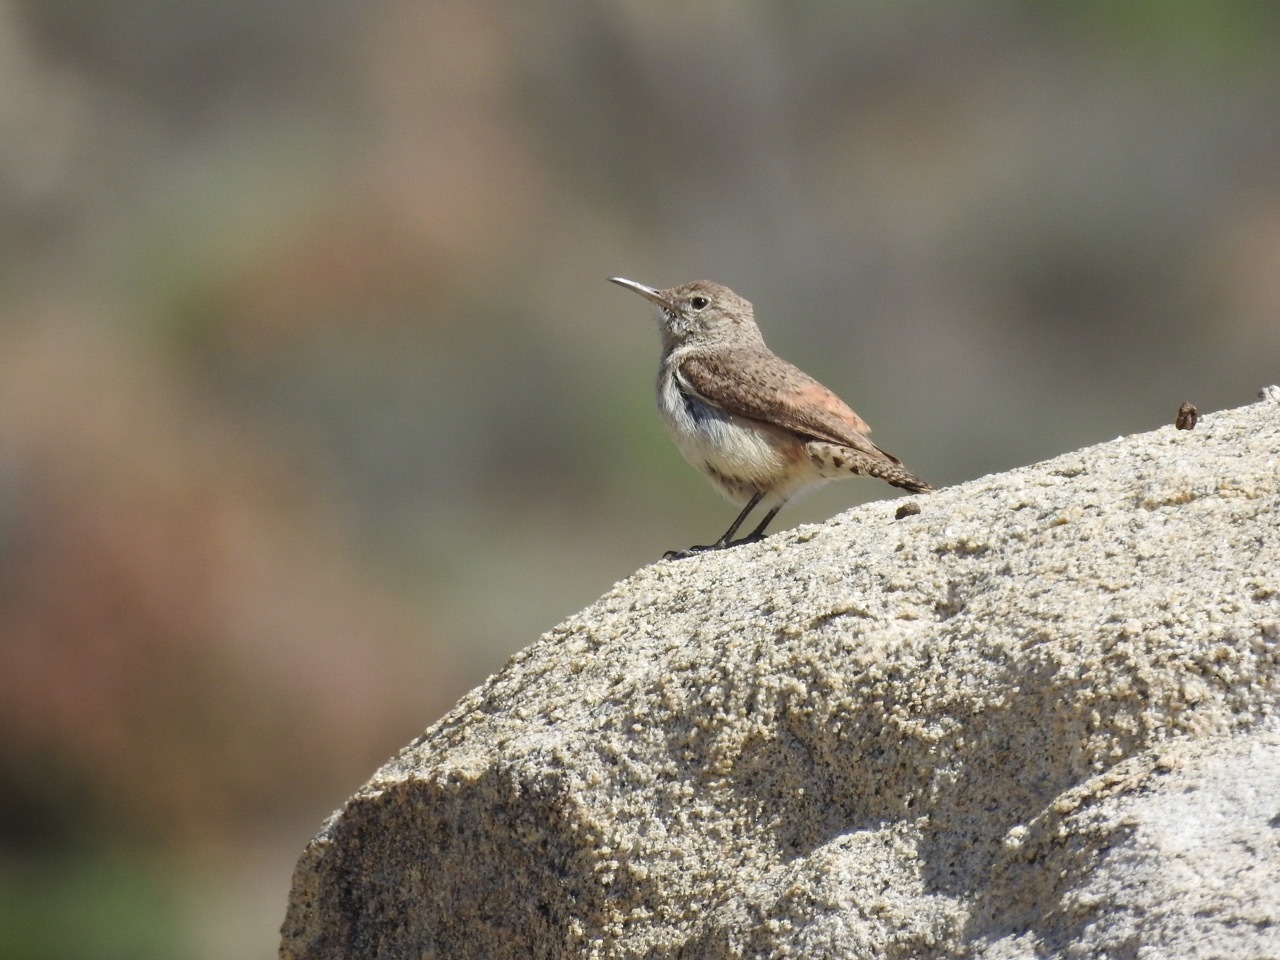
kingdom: Animalia
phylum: Chordata
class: Aves
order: Passeriformes
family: Troglodytidae
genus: Salpinctes
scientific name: Salpinctes obsoletus
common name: Rock wren
